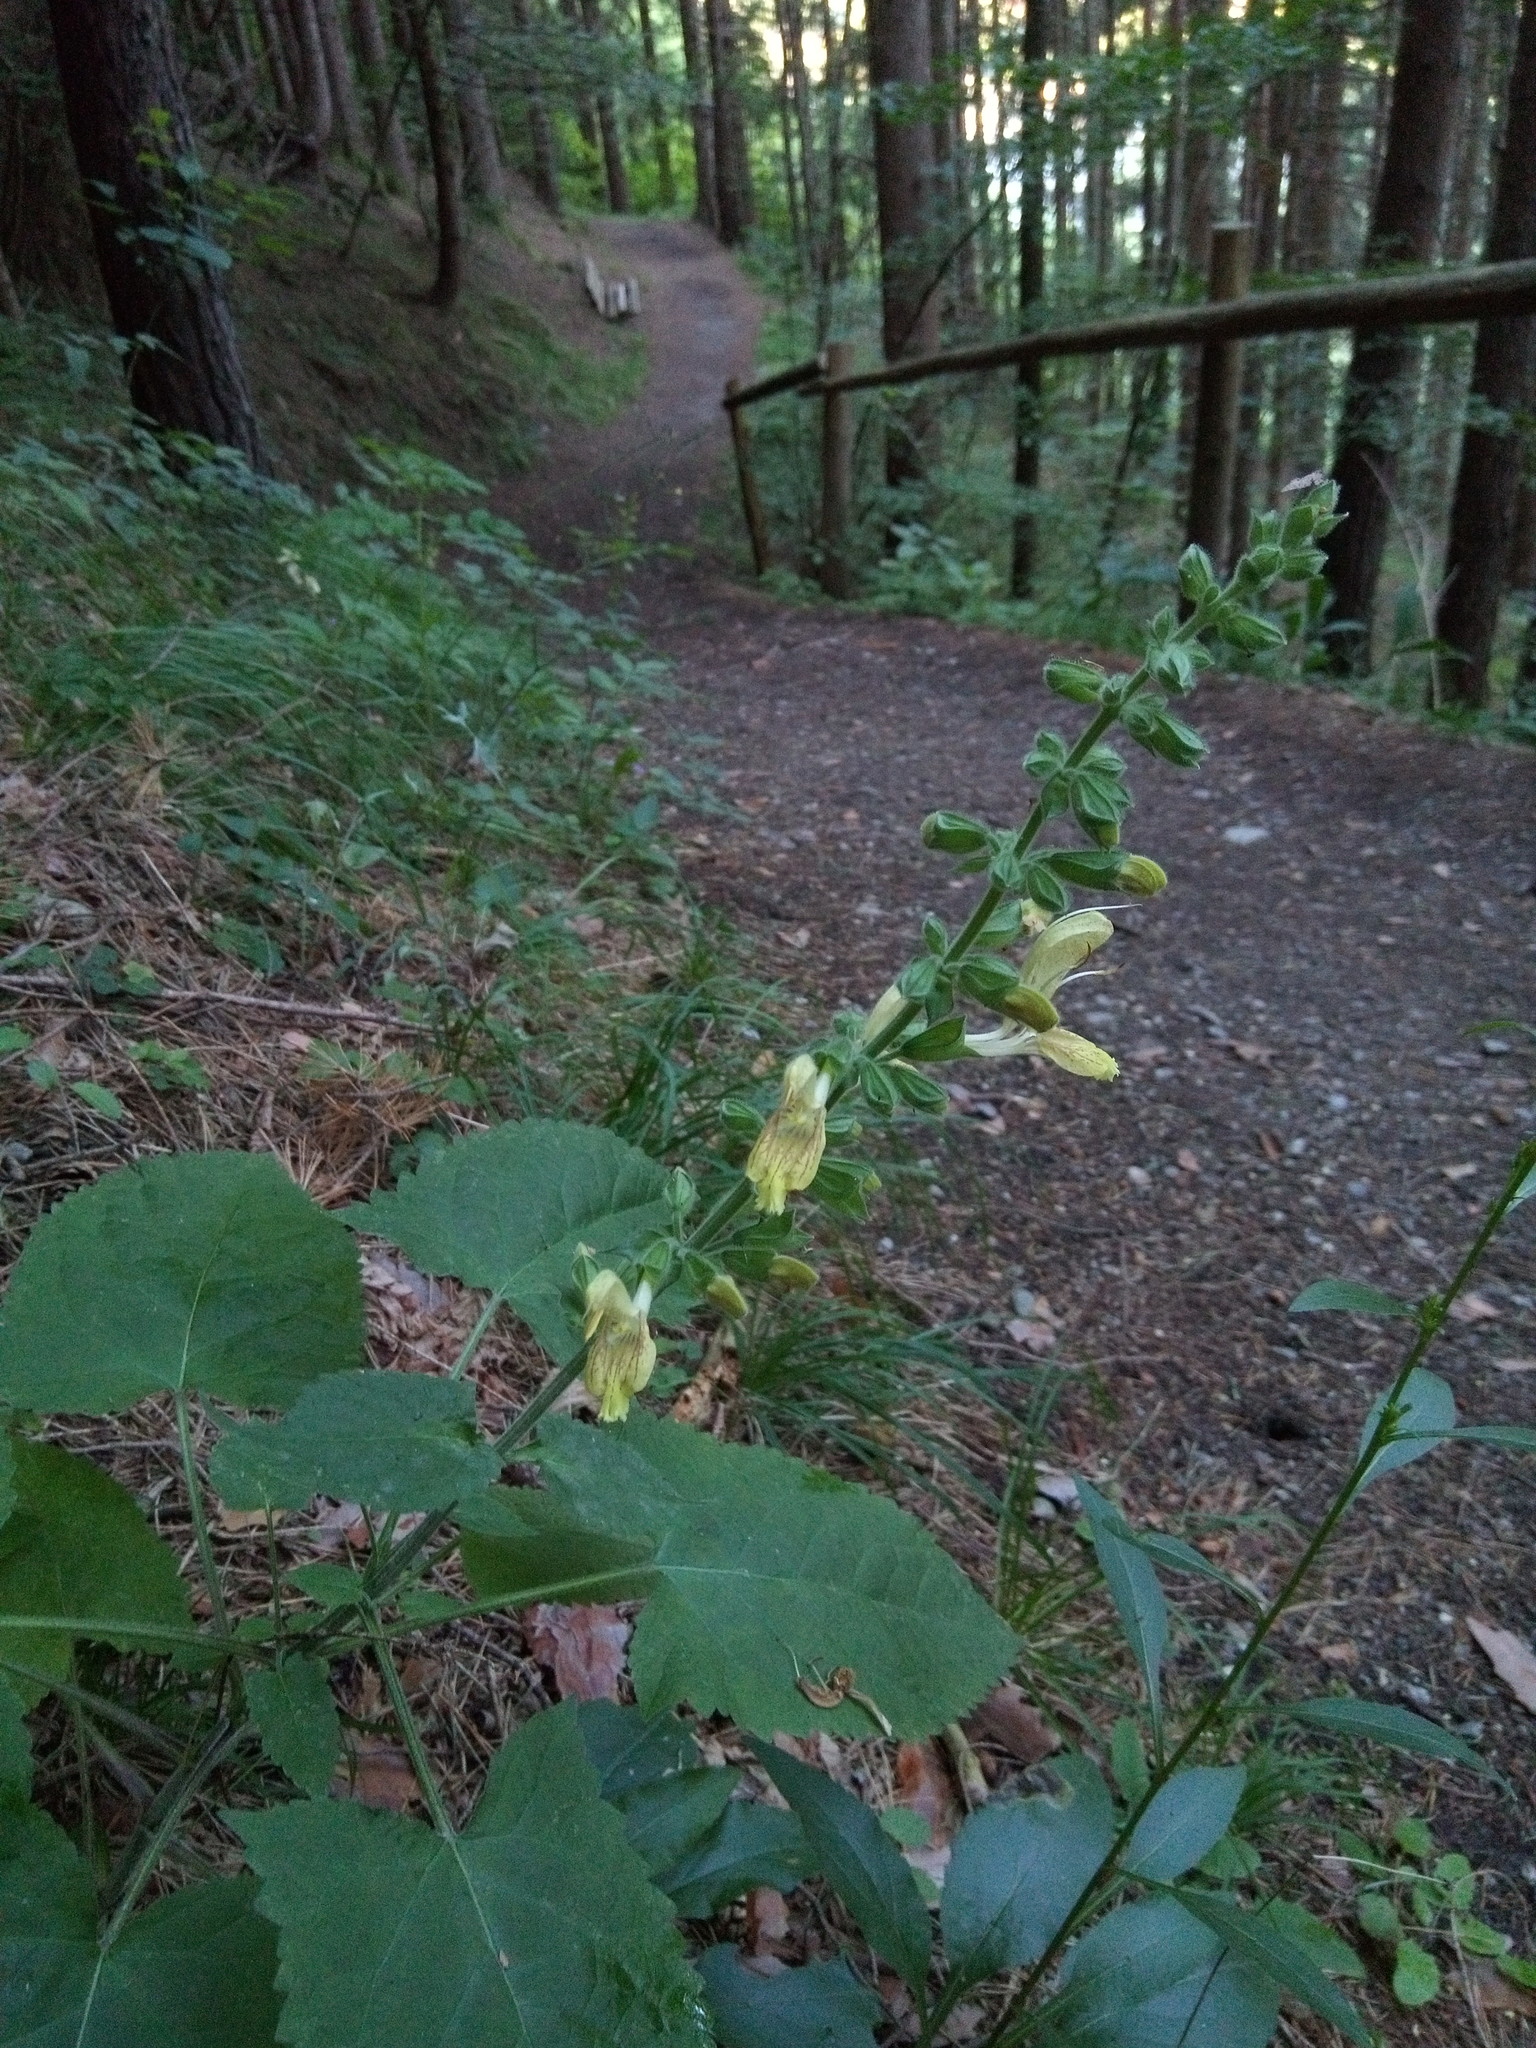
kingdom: Plantae
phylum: Tracheophyta
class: Magnoliopsida
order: Lamiales
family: Lamiaceae
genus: Salvia
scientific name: Salvia glutinosa
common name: Sticky clary
